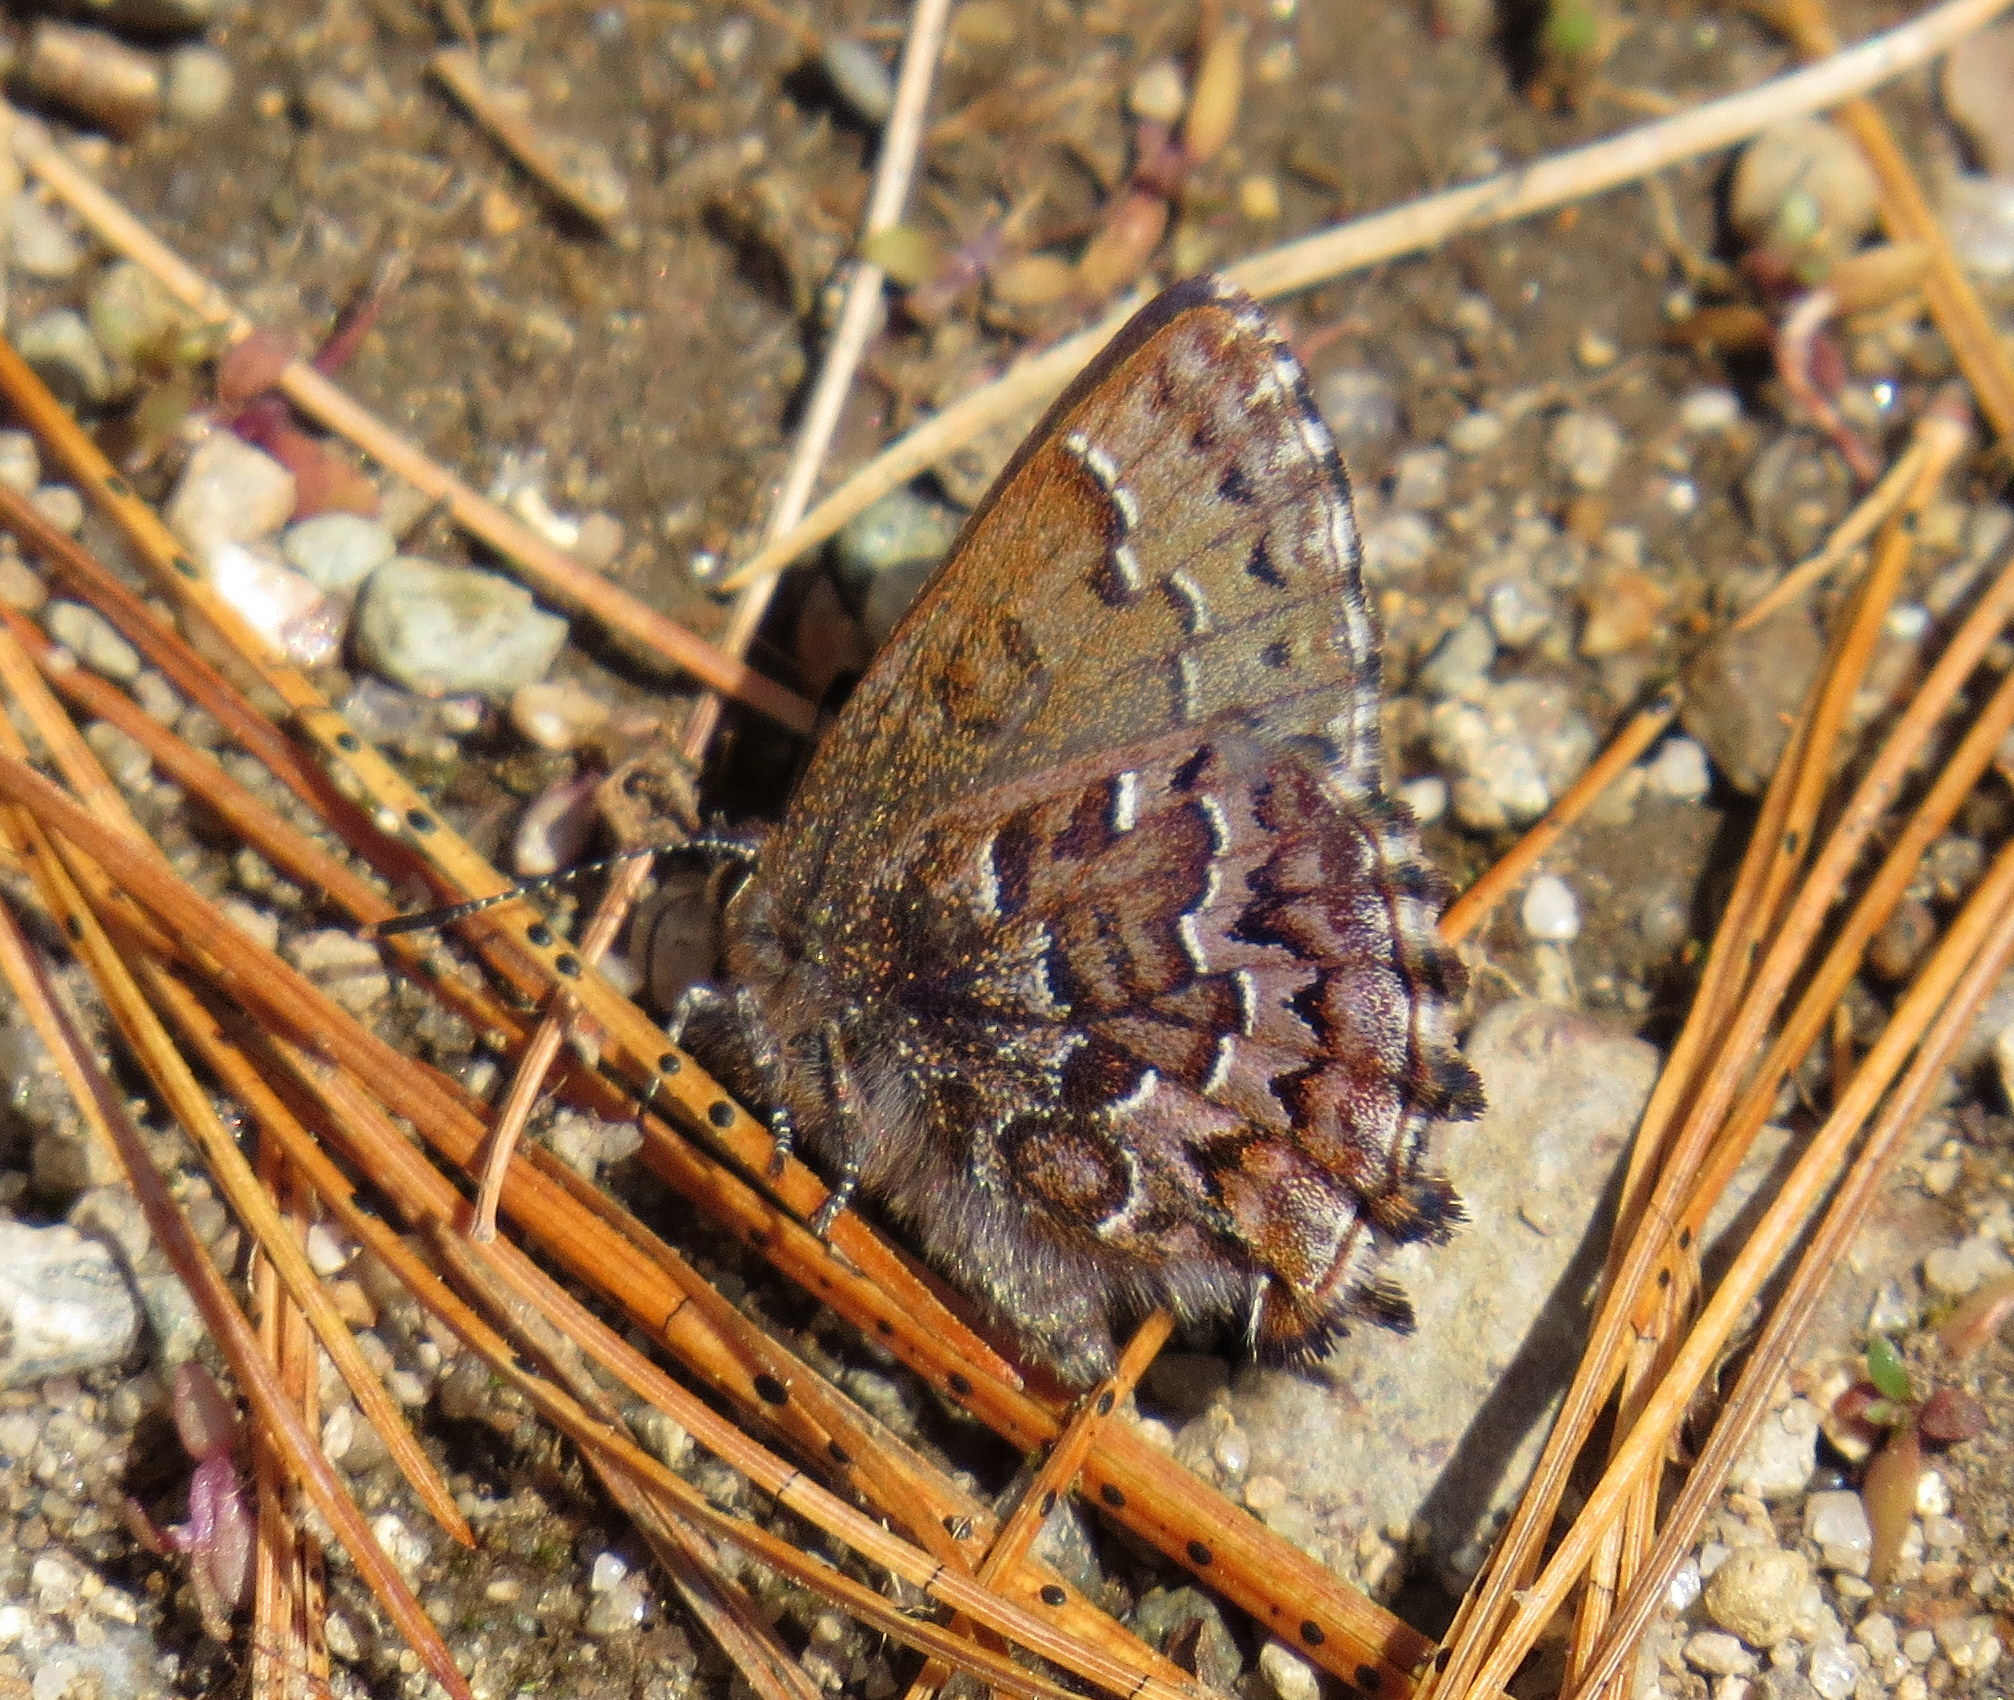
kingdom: Animalia
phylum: Arthropoda
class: Insecta
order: Lepidoptera
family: Lycaenidae
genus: Incisalia
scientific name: Incisalia niphon
